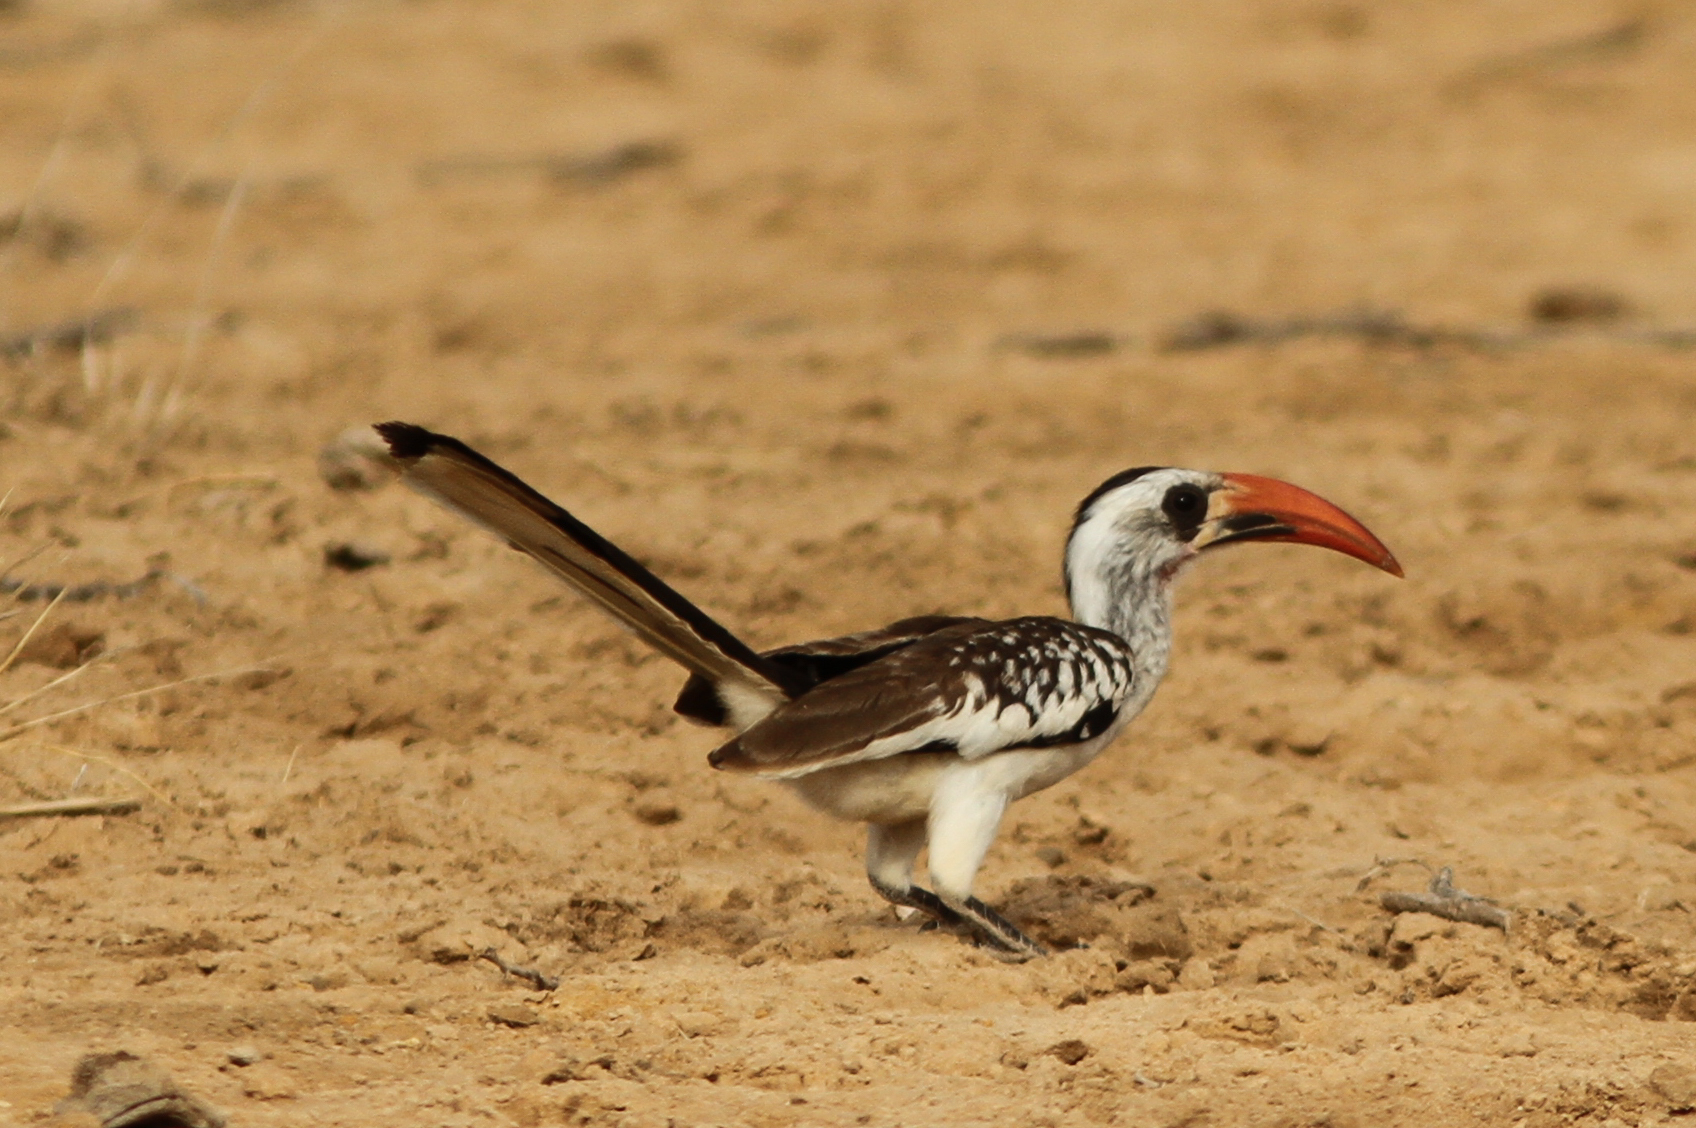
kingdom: Animalia
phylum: Chordata
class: Aves
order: Bucerotiformes
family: Bucerotidae
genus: Tockus
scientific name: Tockus kempi
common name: Western red-billed hornbill
